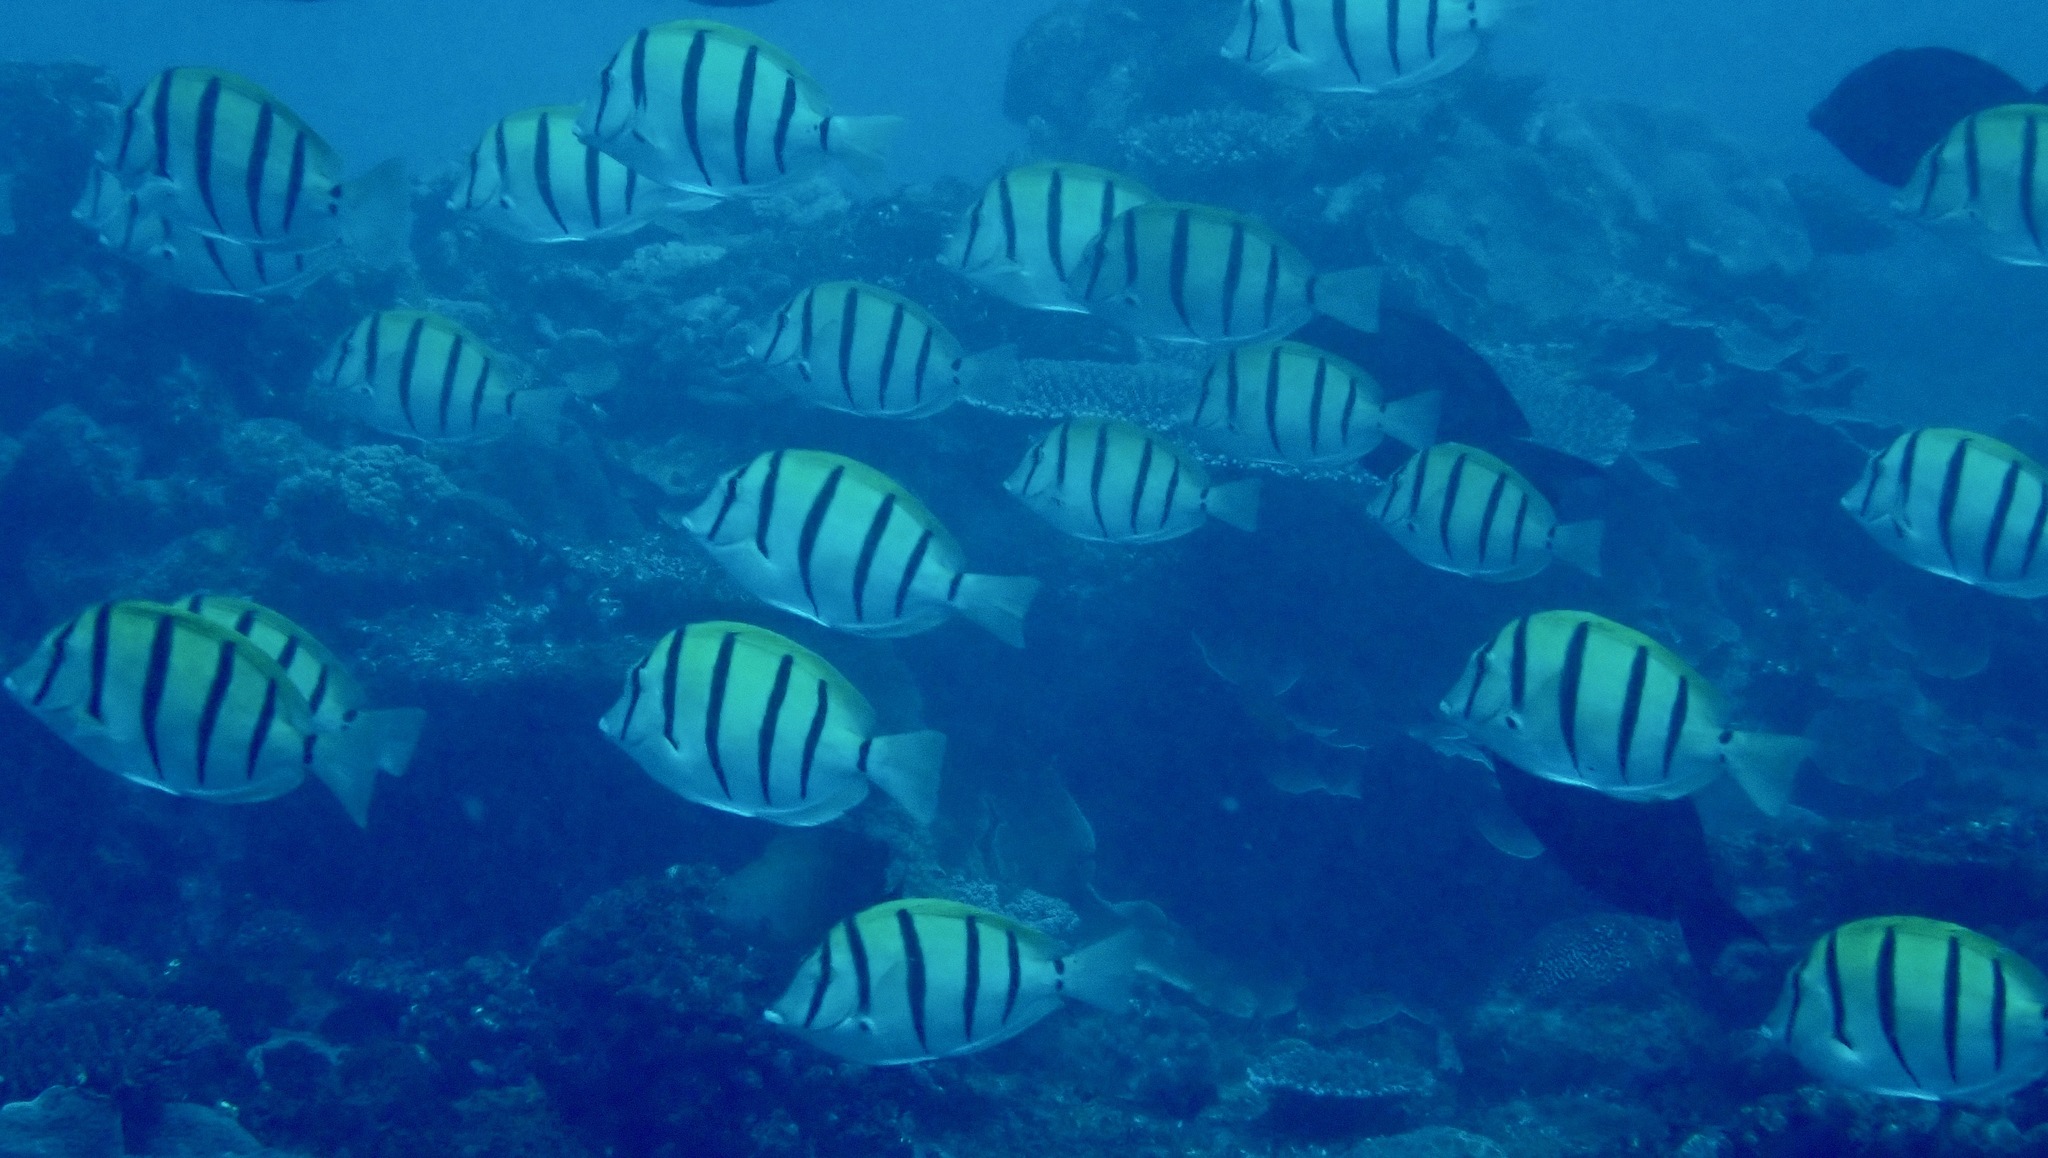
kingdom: Animalia
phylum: Chordata
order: Perciformes
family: Acanthuridae
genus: Acanthurus
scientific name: Acanthurus triostegus
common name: Convict surgeonfish
